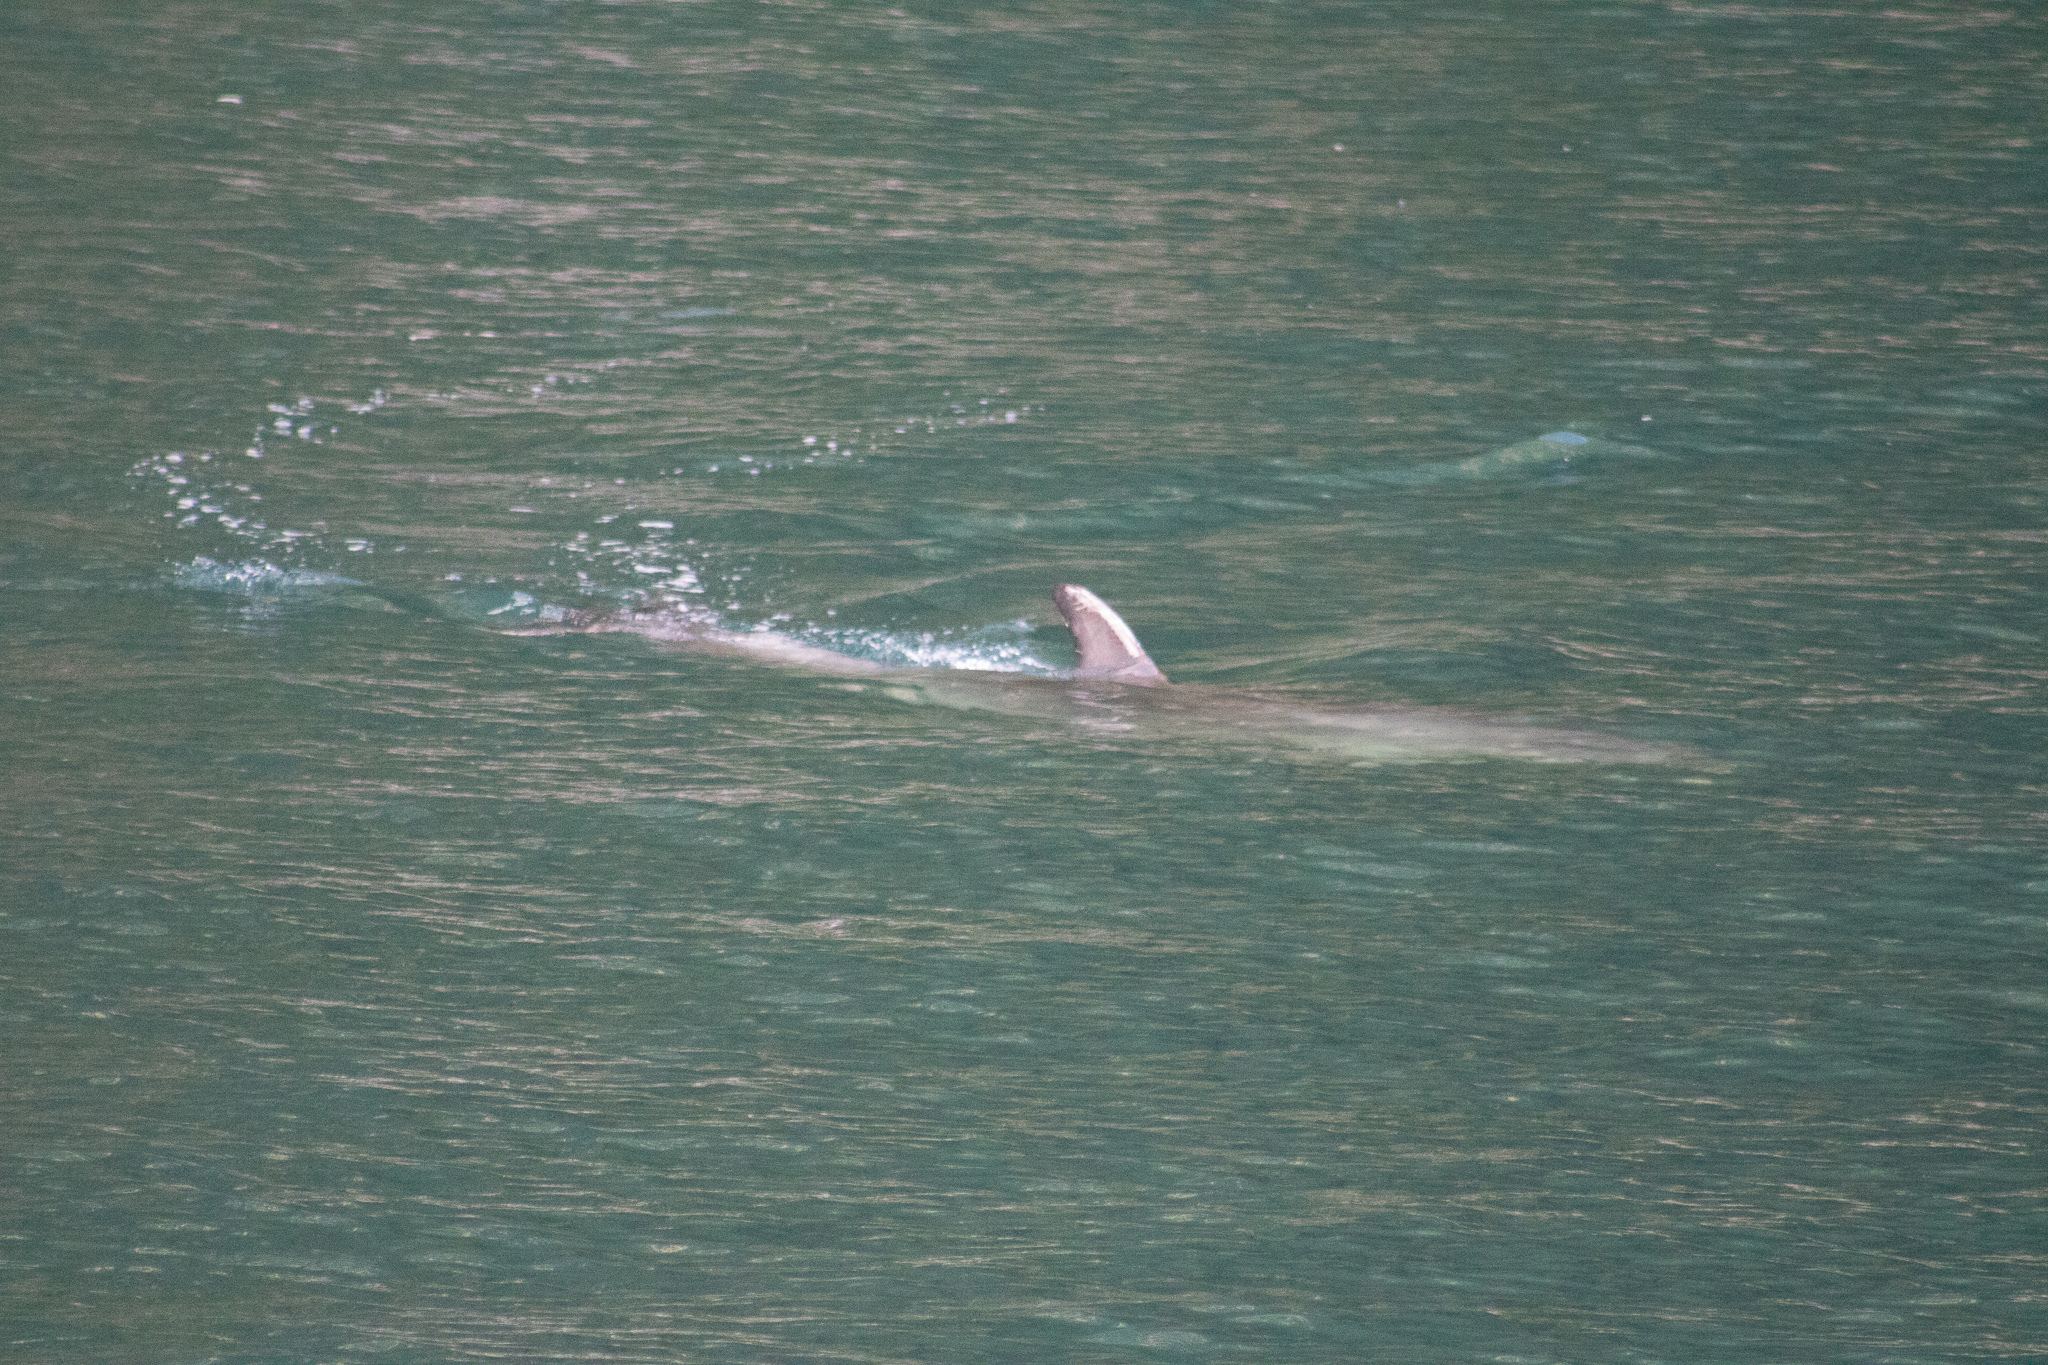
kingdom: Animalia
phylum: Chordata
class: Mammalia
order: Cetacea
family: Delphinidae
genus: Tursiops
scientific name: Tursiops truncatus
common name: Bottlenose dolphin
